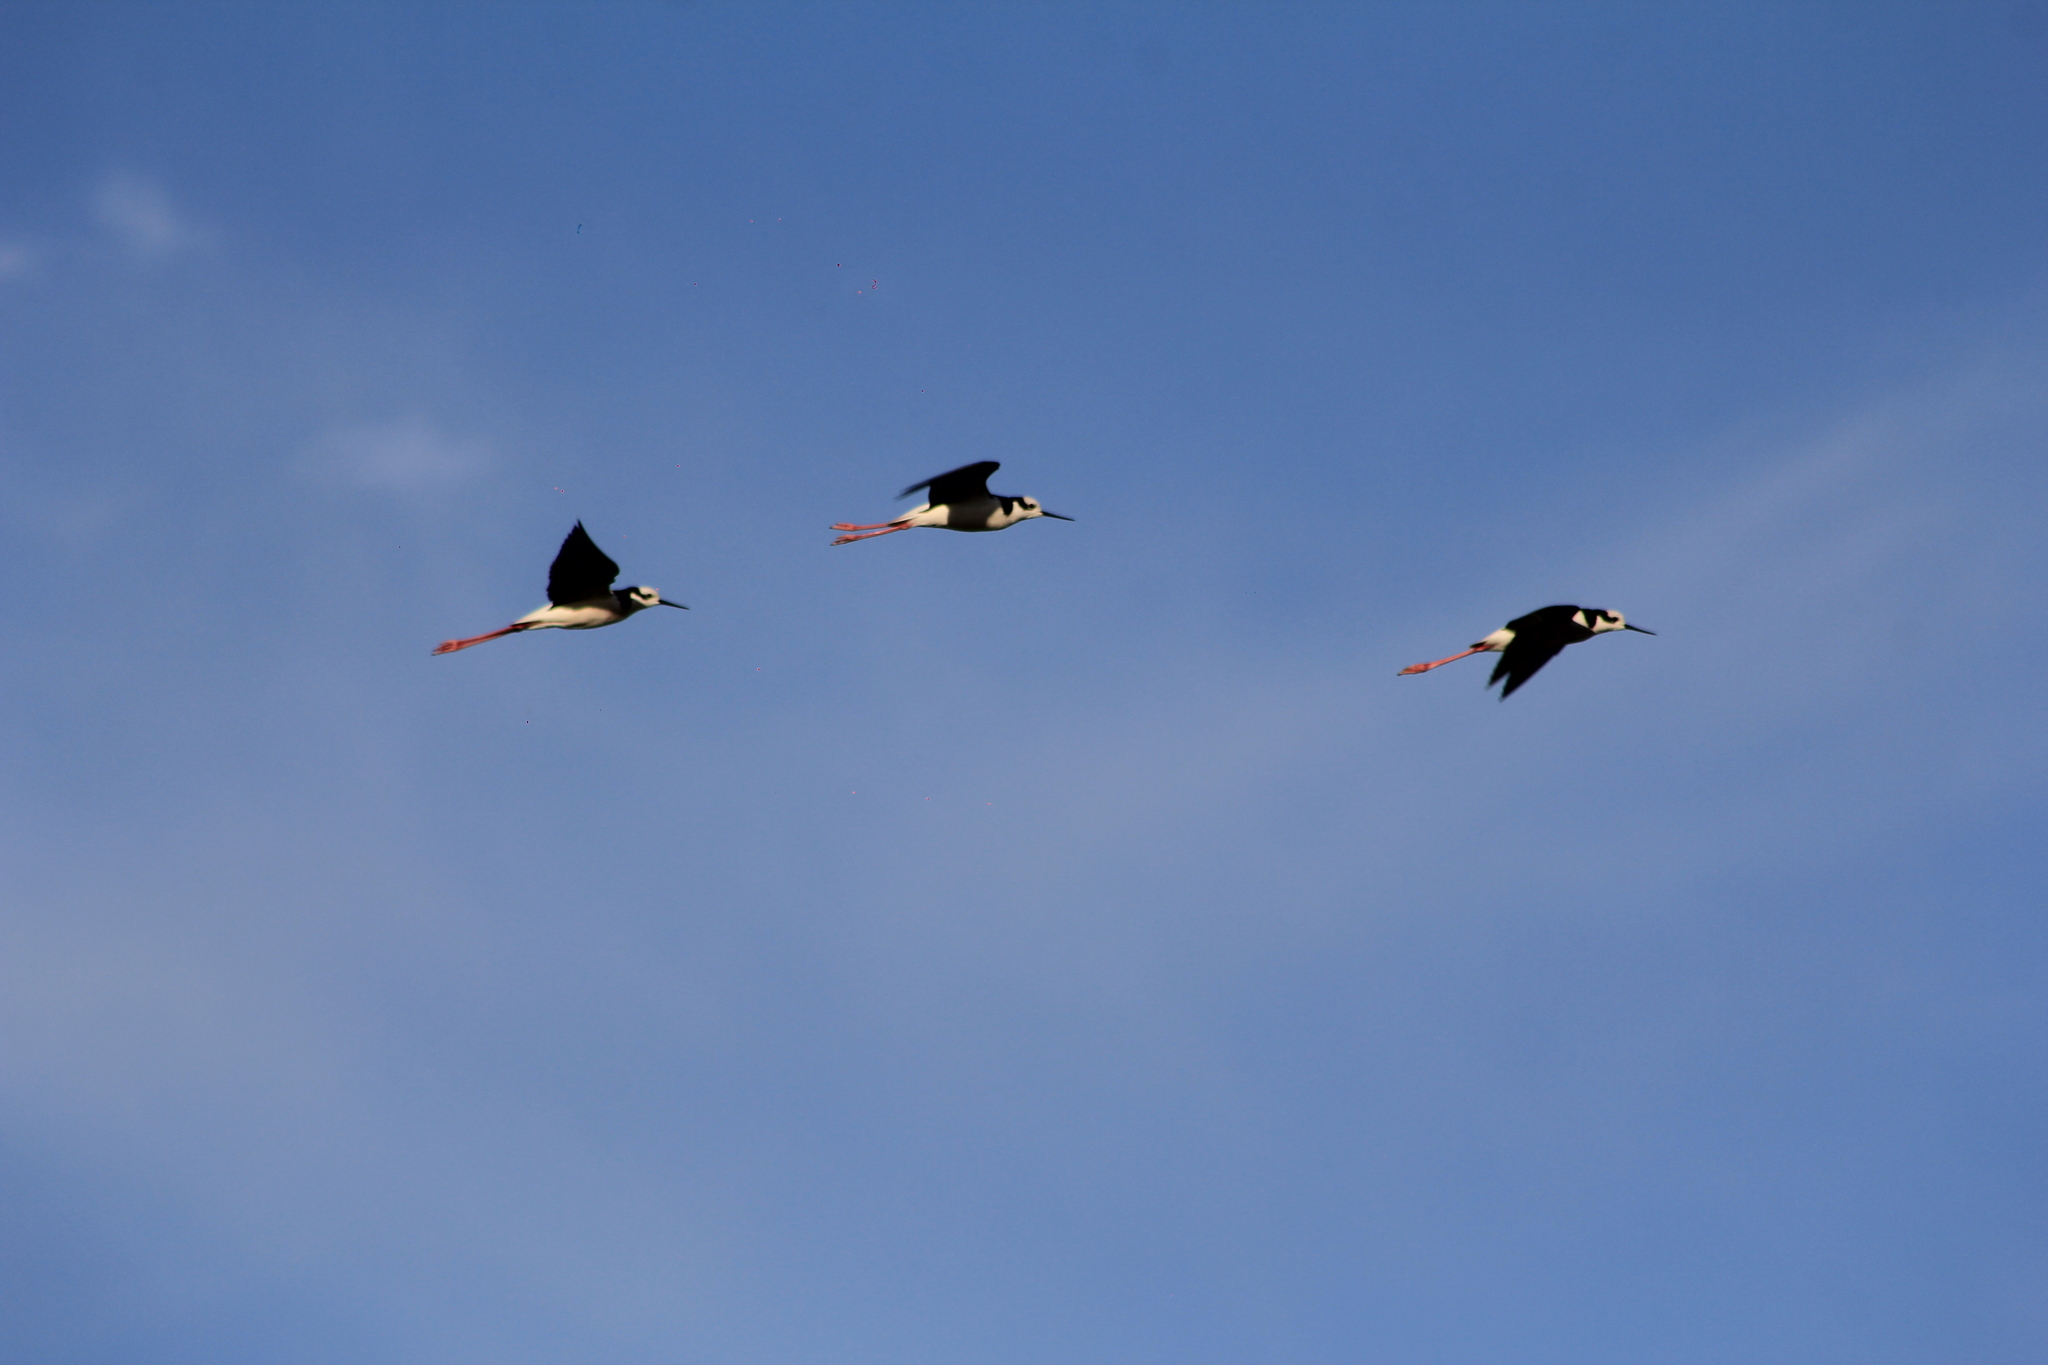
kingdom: Animalia
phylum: Chordata
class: Aves
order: Charadriiformes
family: Recurvirostridae
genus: Himantopus
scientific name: Himantopus mexicanus
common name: Black-necked stilt
